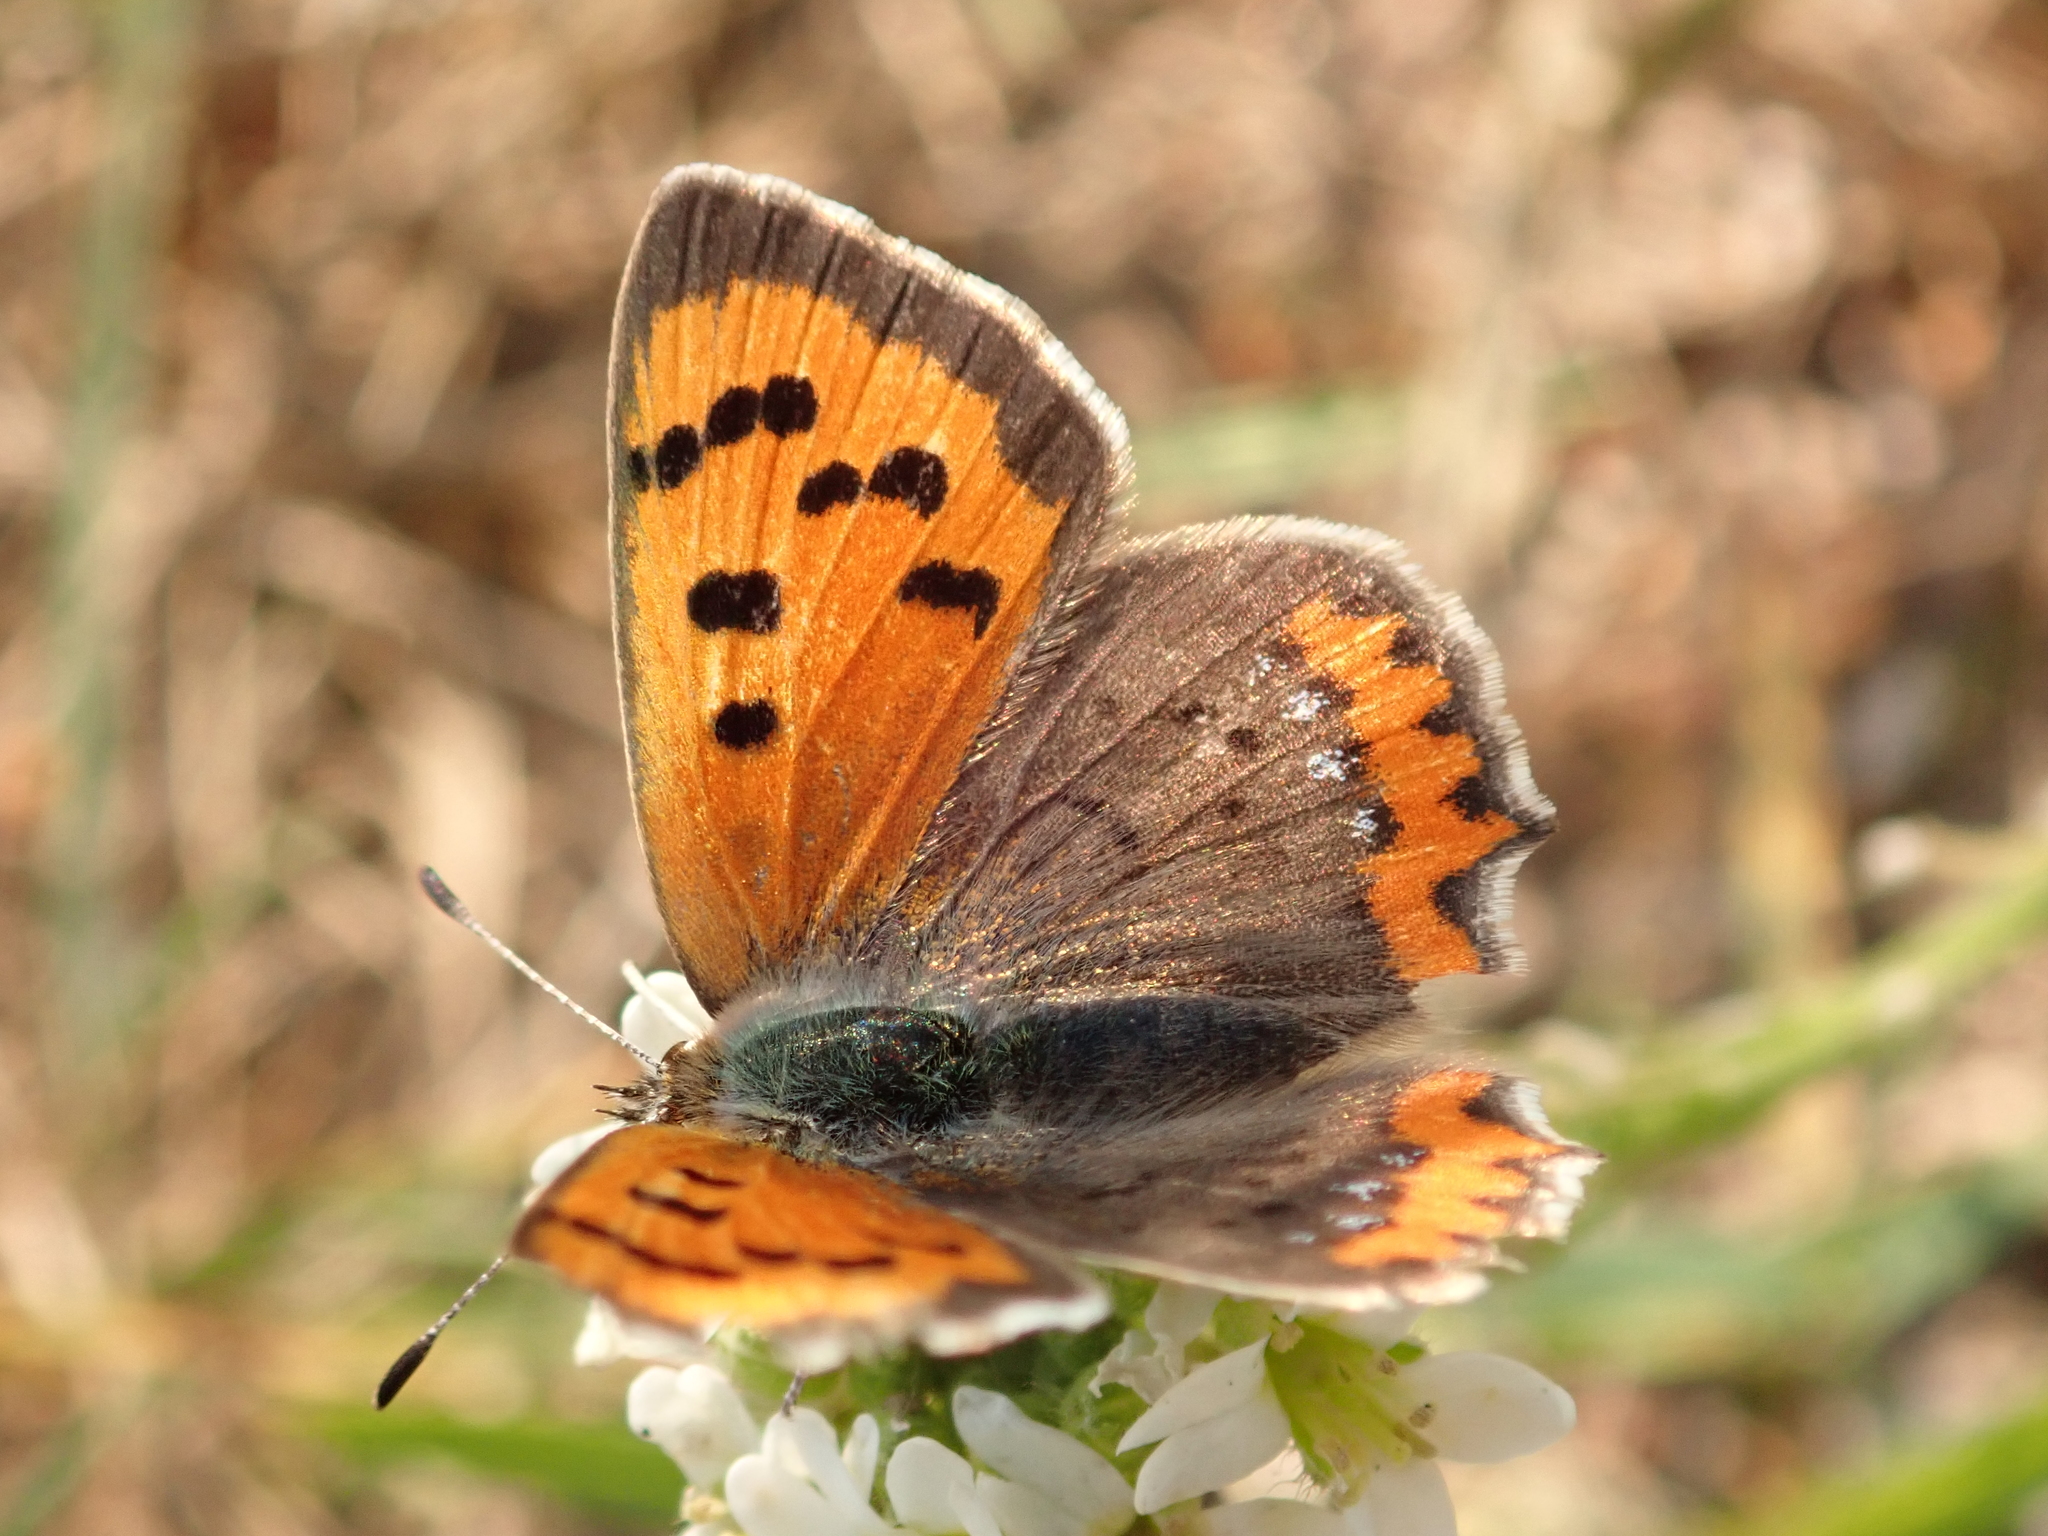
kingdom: Animalia
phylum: Arthropoda
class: Insecta
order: Lepidoptera
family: Lycaenidae
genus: Lycaena
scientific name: Lycaena phlaeas
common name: Small copper
